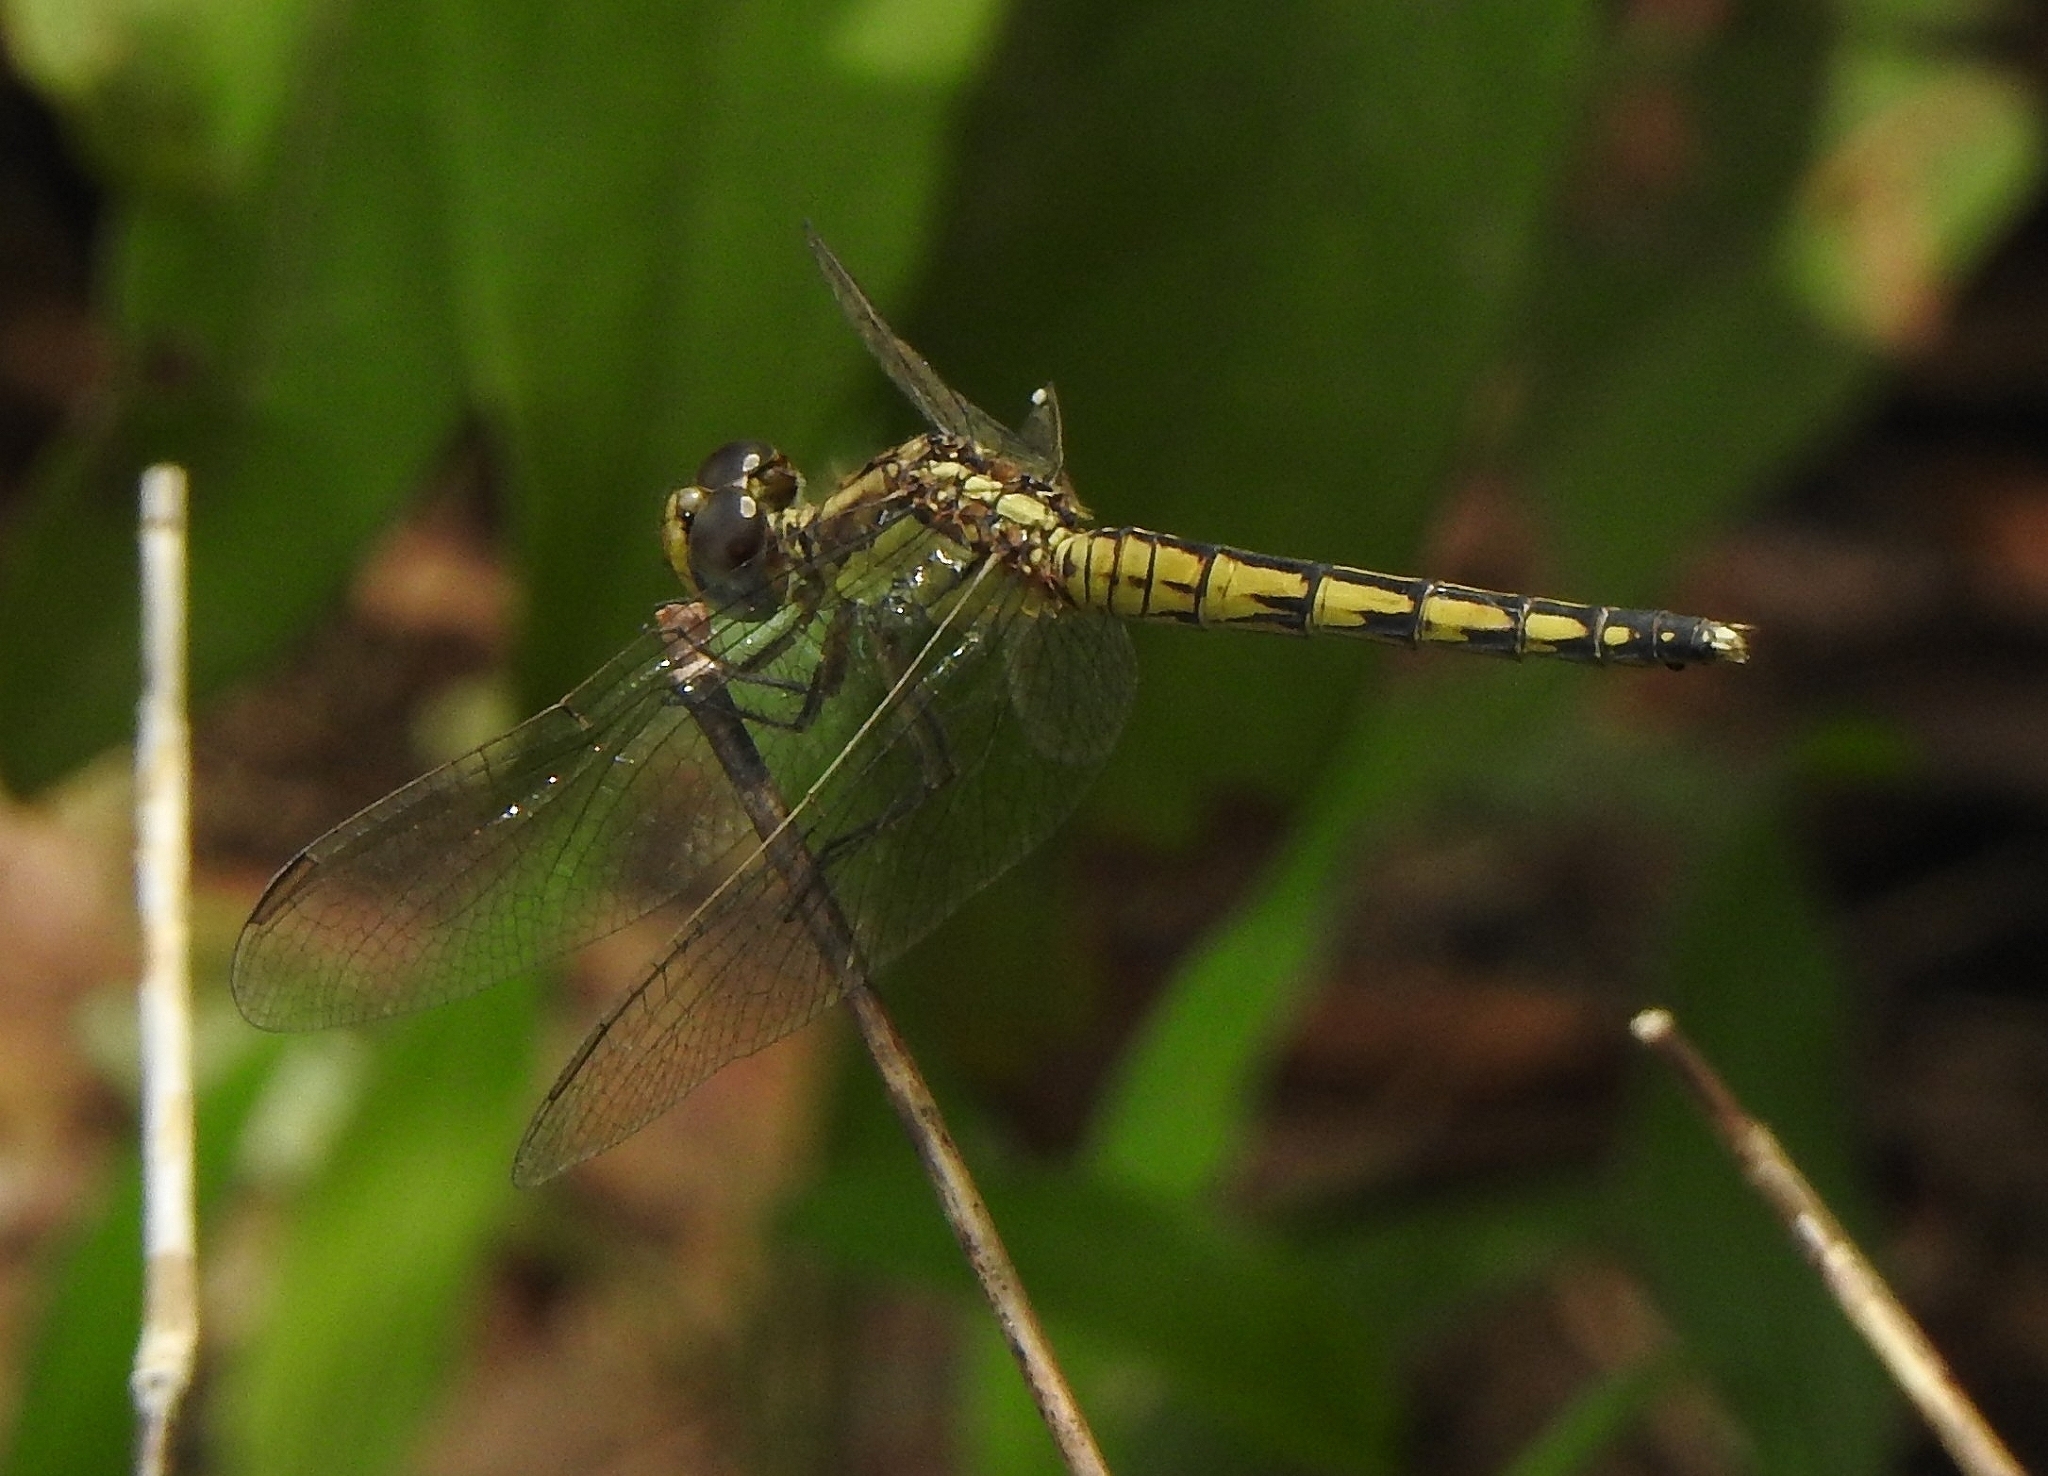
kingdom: Animalia
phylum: Arthropoda
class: Insecta
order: Odonata
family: Libellulidae
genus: Indothemis
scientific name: Indothemis carnatica
